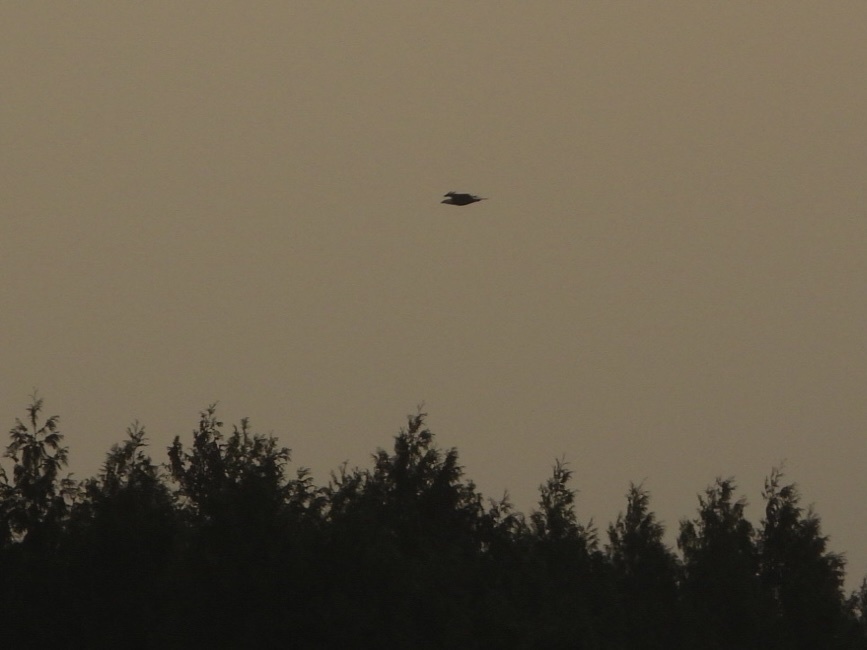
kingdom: Animalia
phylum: Chordata
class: Aves
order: Accipitriformes
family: Accipitridae
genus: Haliaeetus
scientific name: Haliaeetus leucocephalus
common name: Bald eagle
